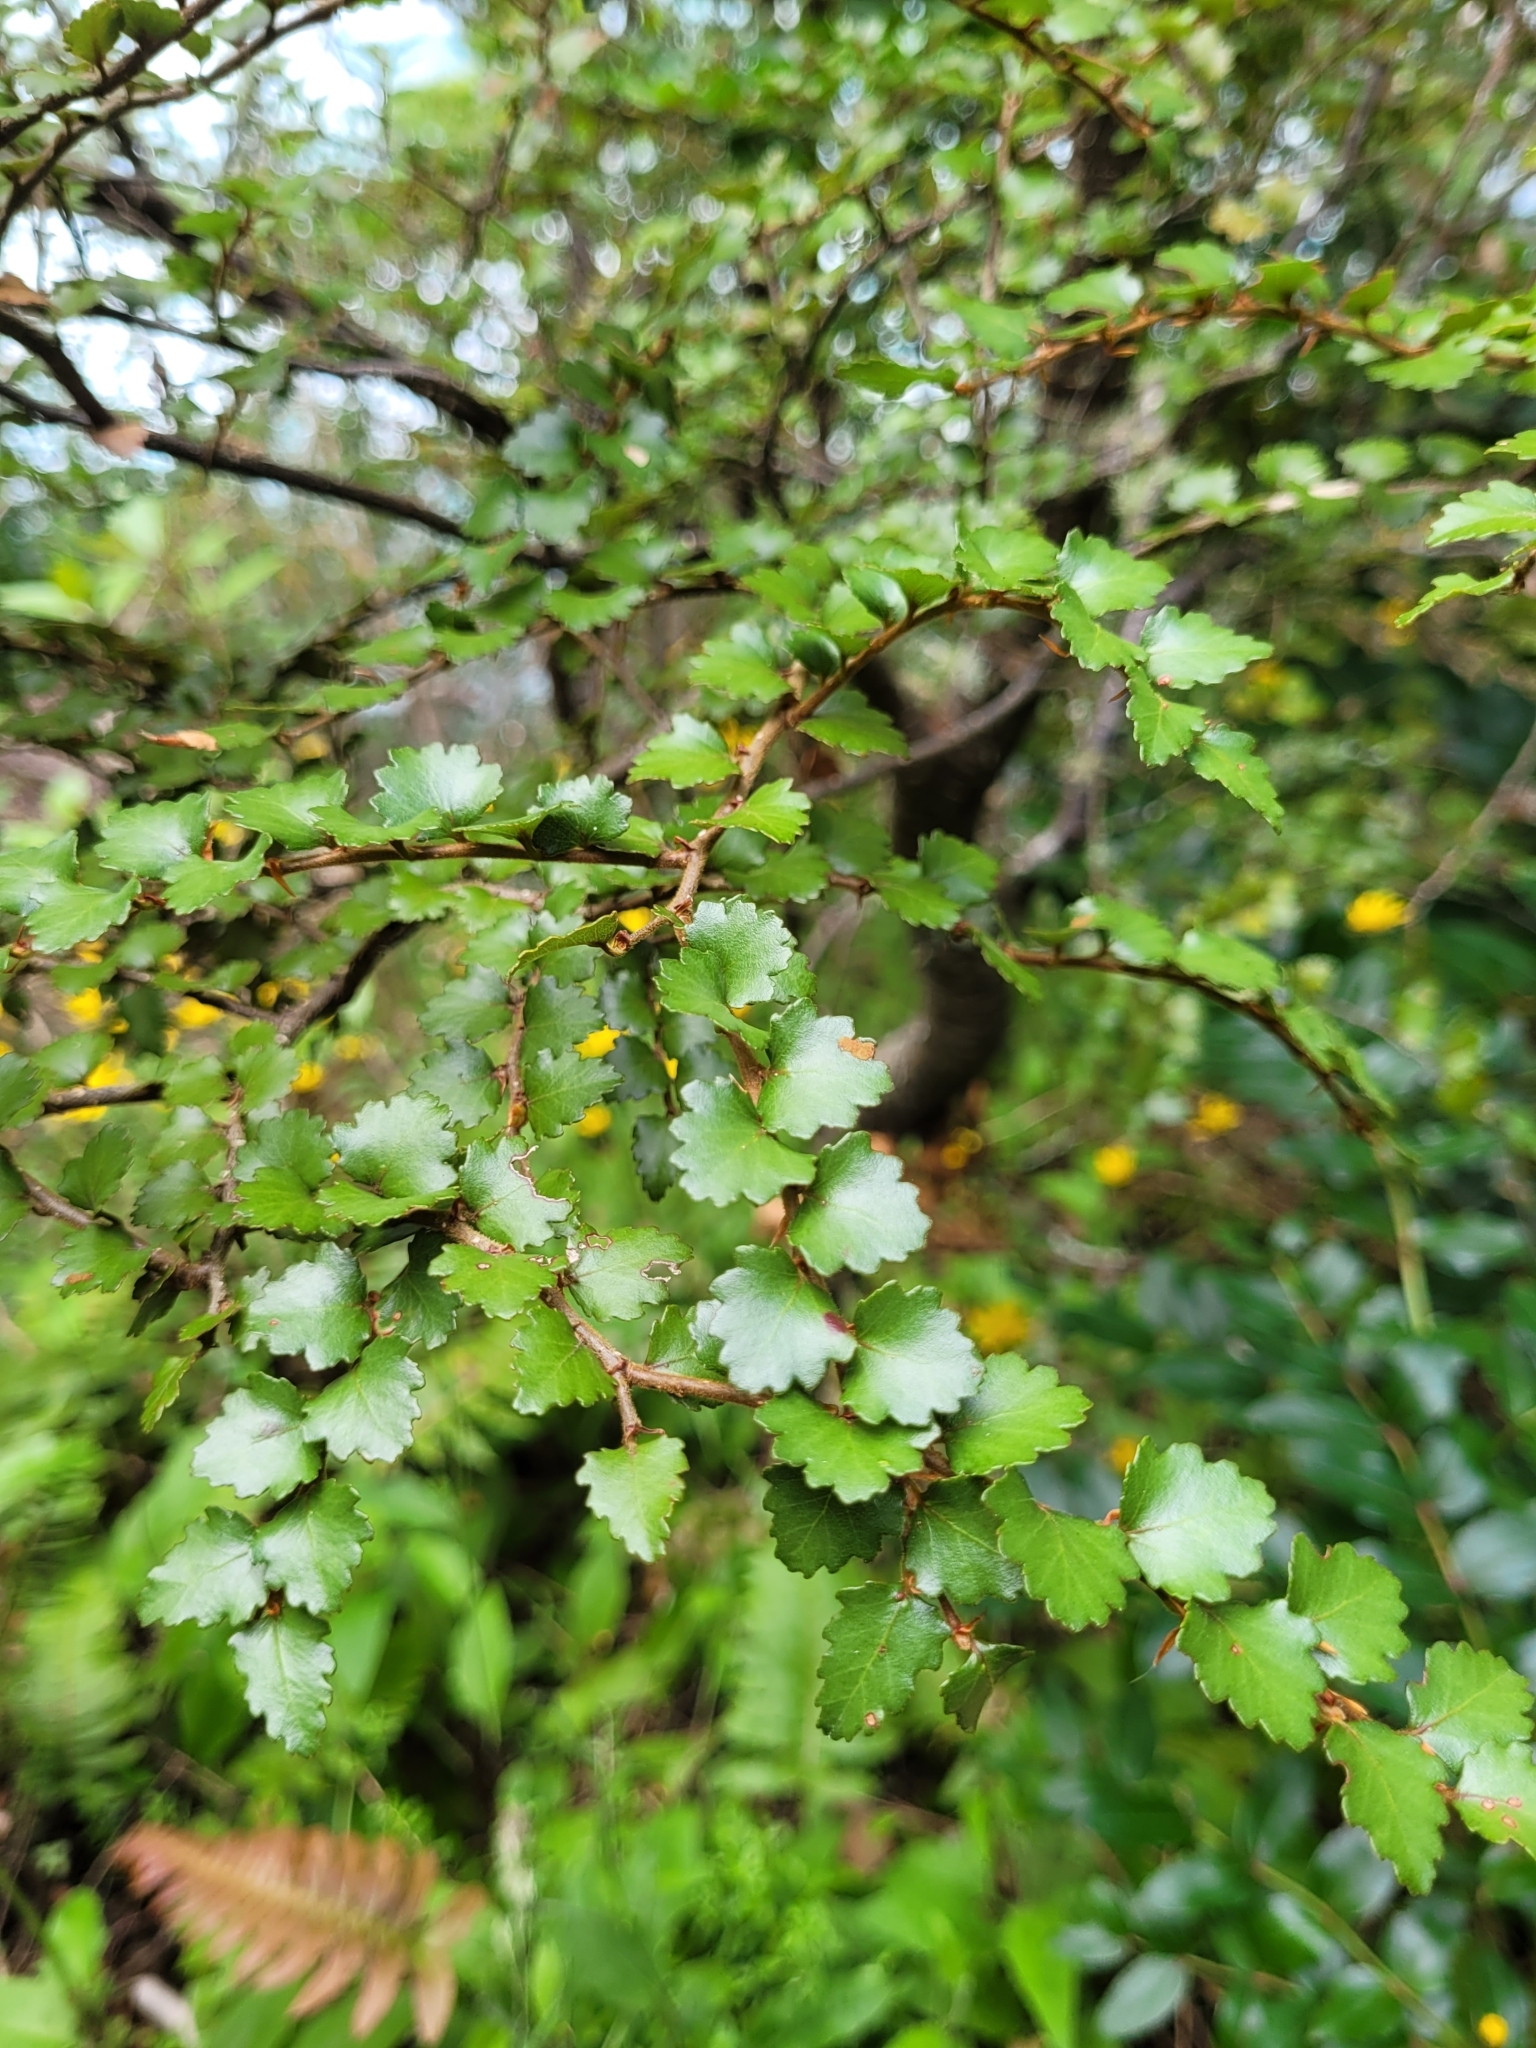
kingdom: Plantae
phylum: Tracheophyta
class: Magnoliopsida
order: Fagales
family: Nothofagaceae
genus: Nothofagus
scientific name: Nothofagus menziesii
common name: Silver beech
